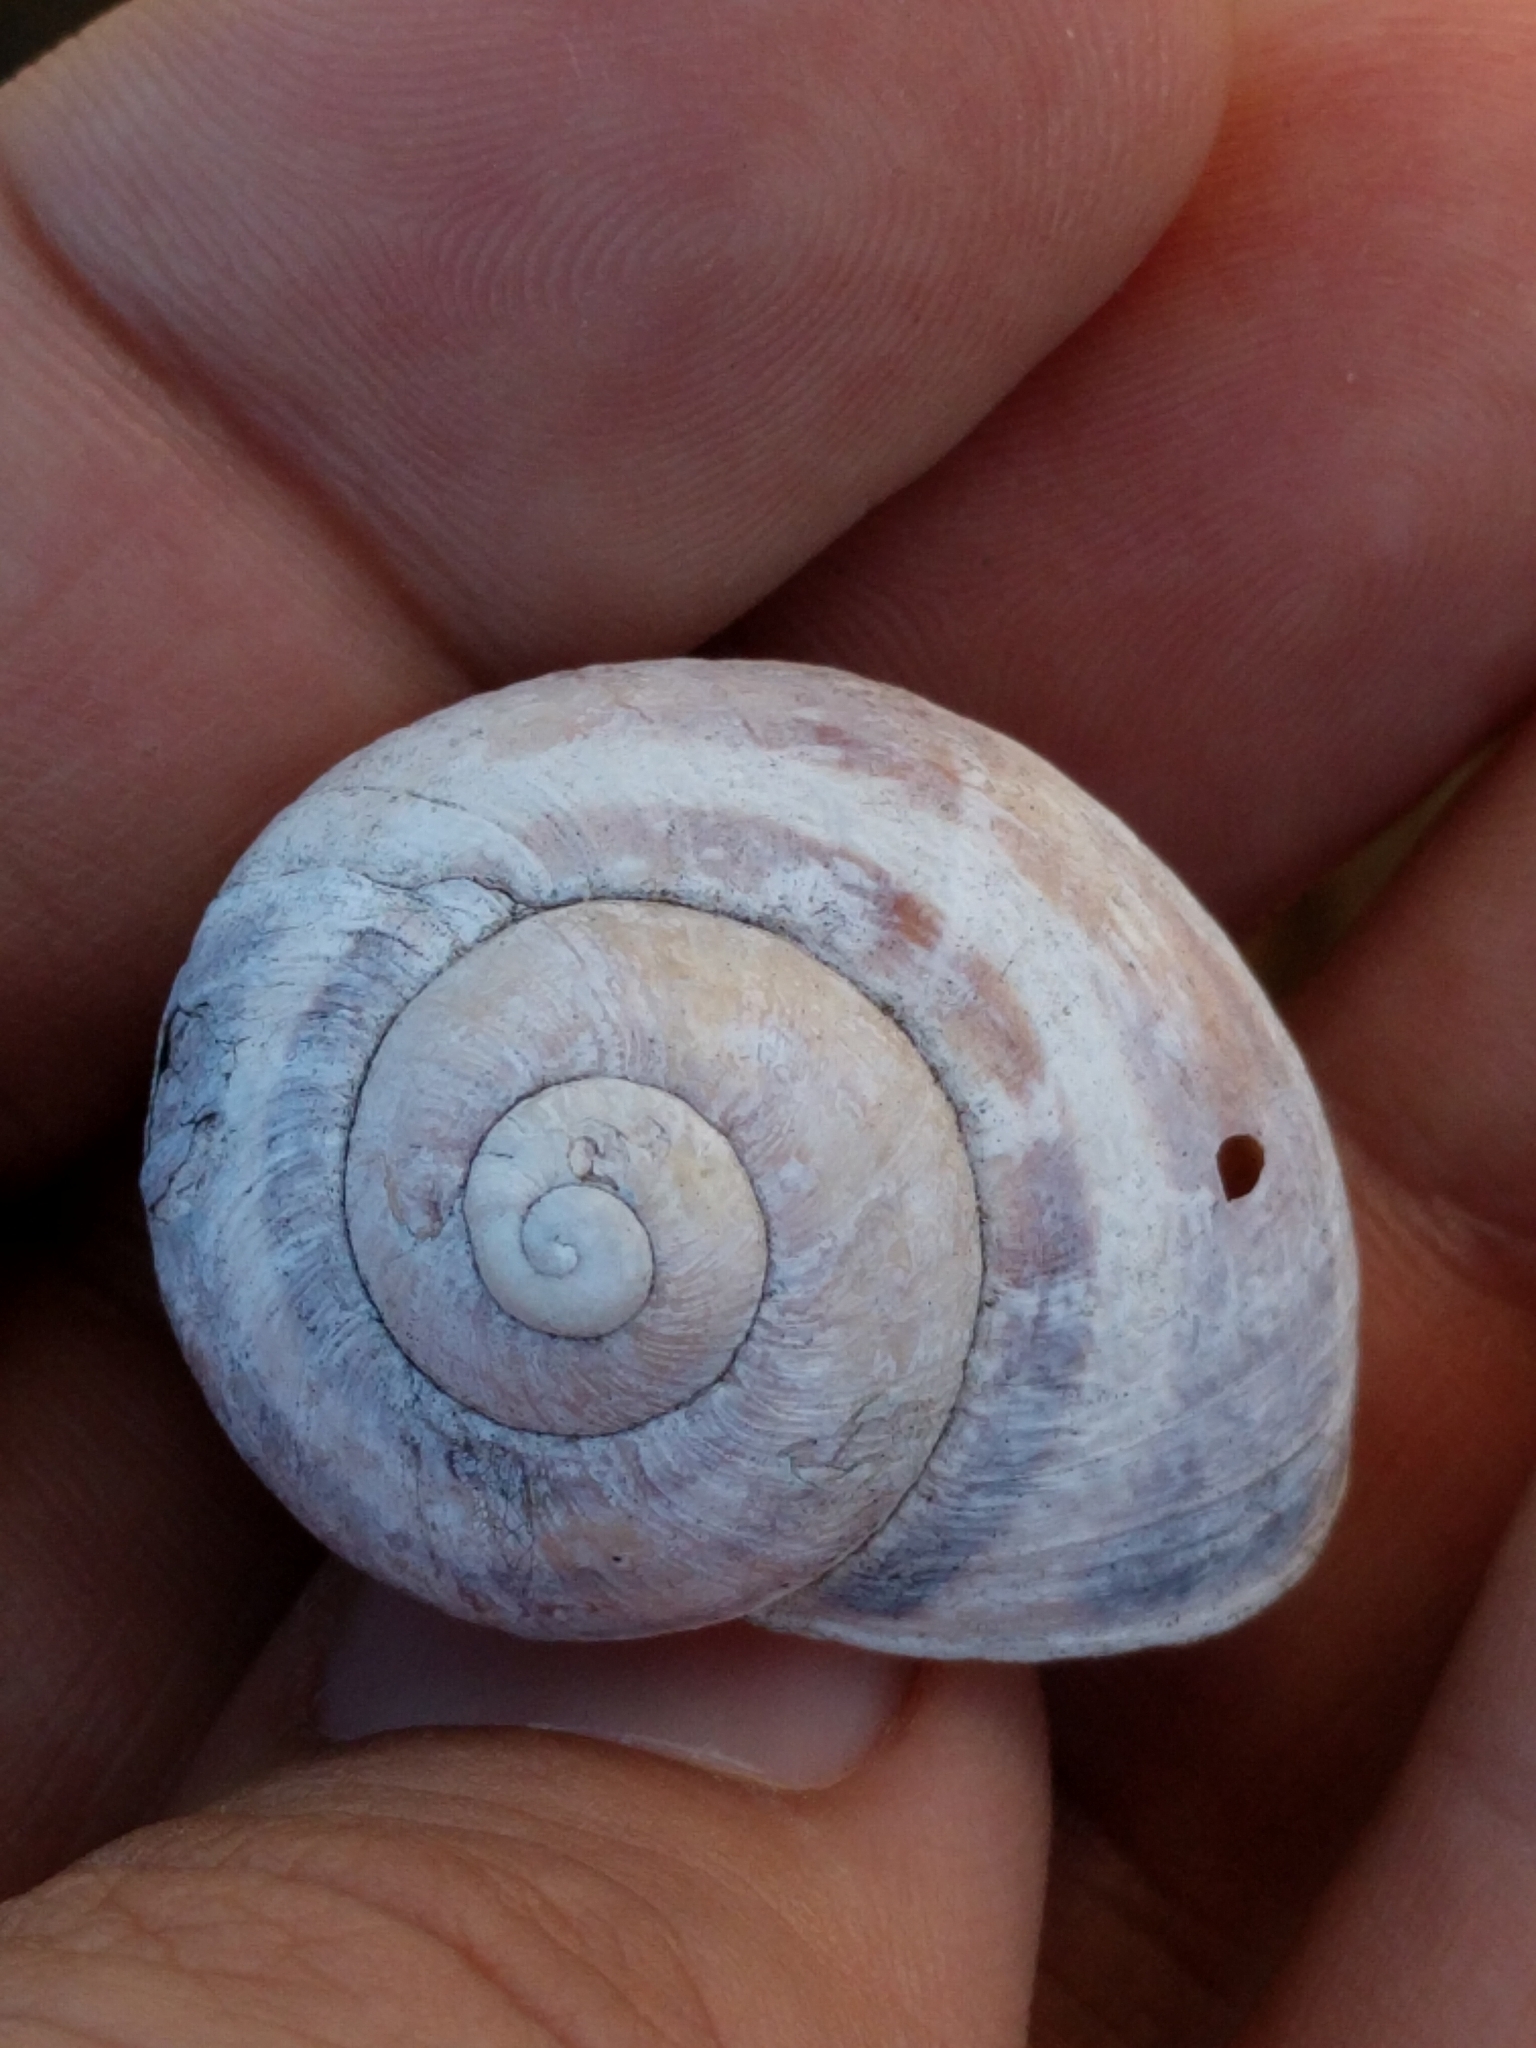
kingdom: Animalia
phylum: Mollusca
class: Gastropoda
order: Stylommatophora
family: Helicidae
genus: Cornu
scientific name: Cornu aspersum
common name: Brown garden snail
